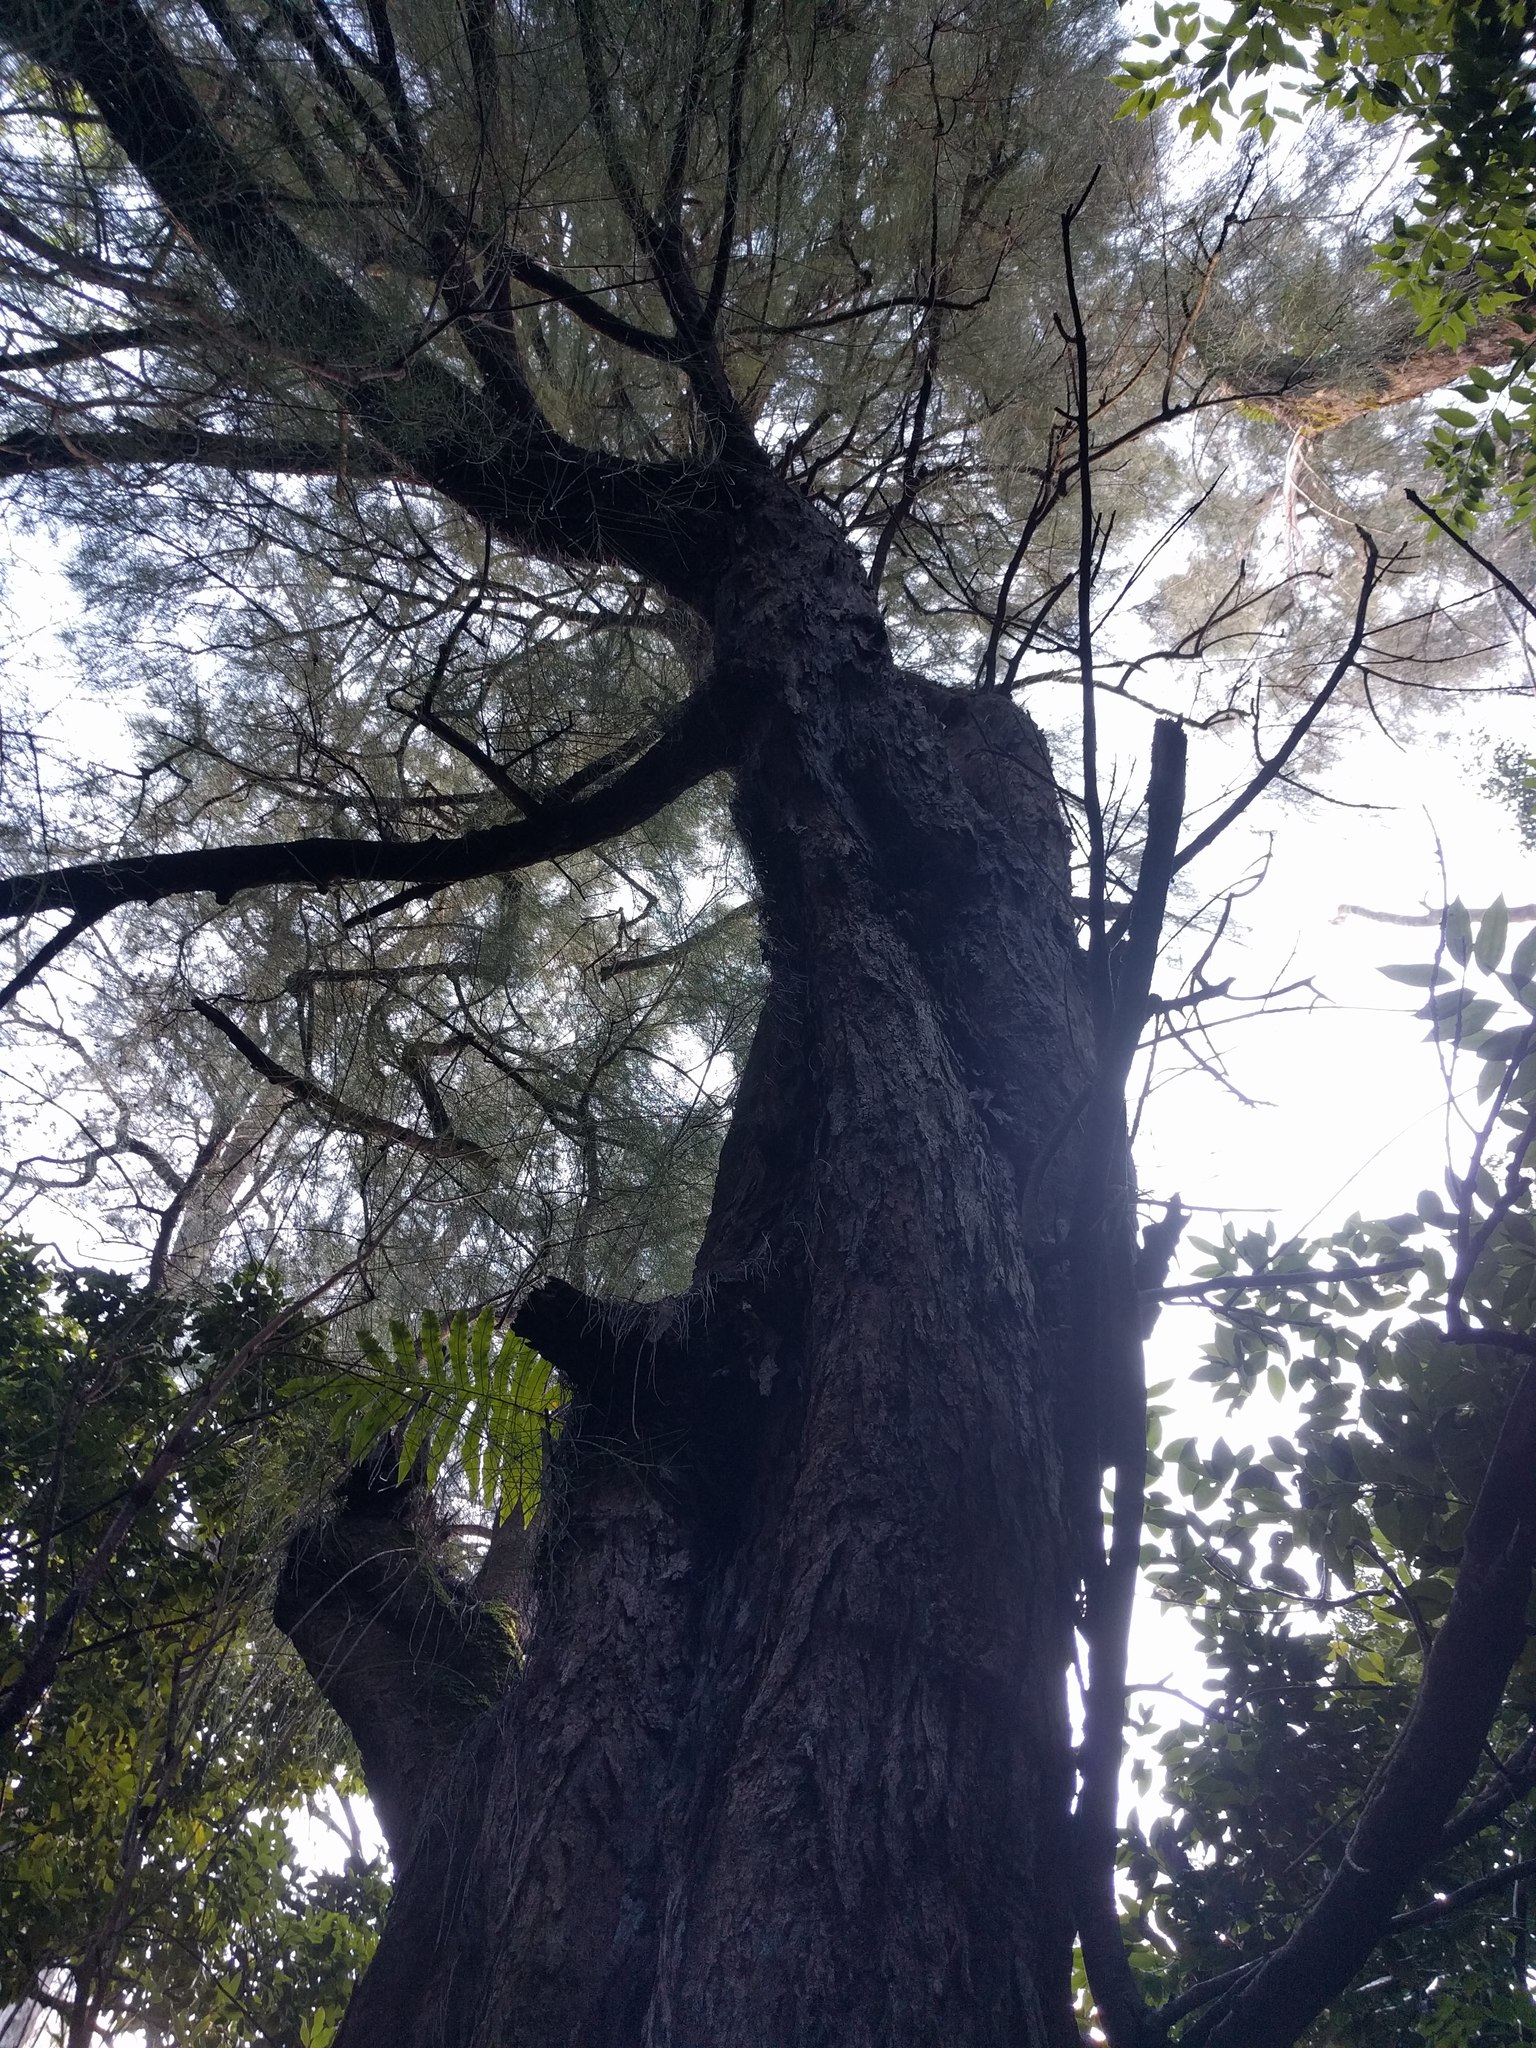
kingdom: Plantae
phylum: Tracheophyta
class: Magnoliopsida
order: Fagales
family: Casuarinaceae
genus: Casuarina
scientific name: Casuarina equisetifolia
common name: Beach sheoak
